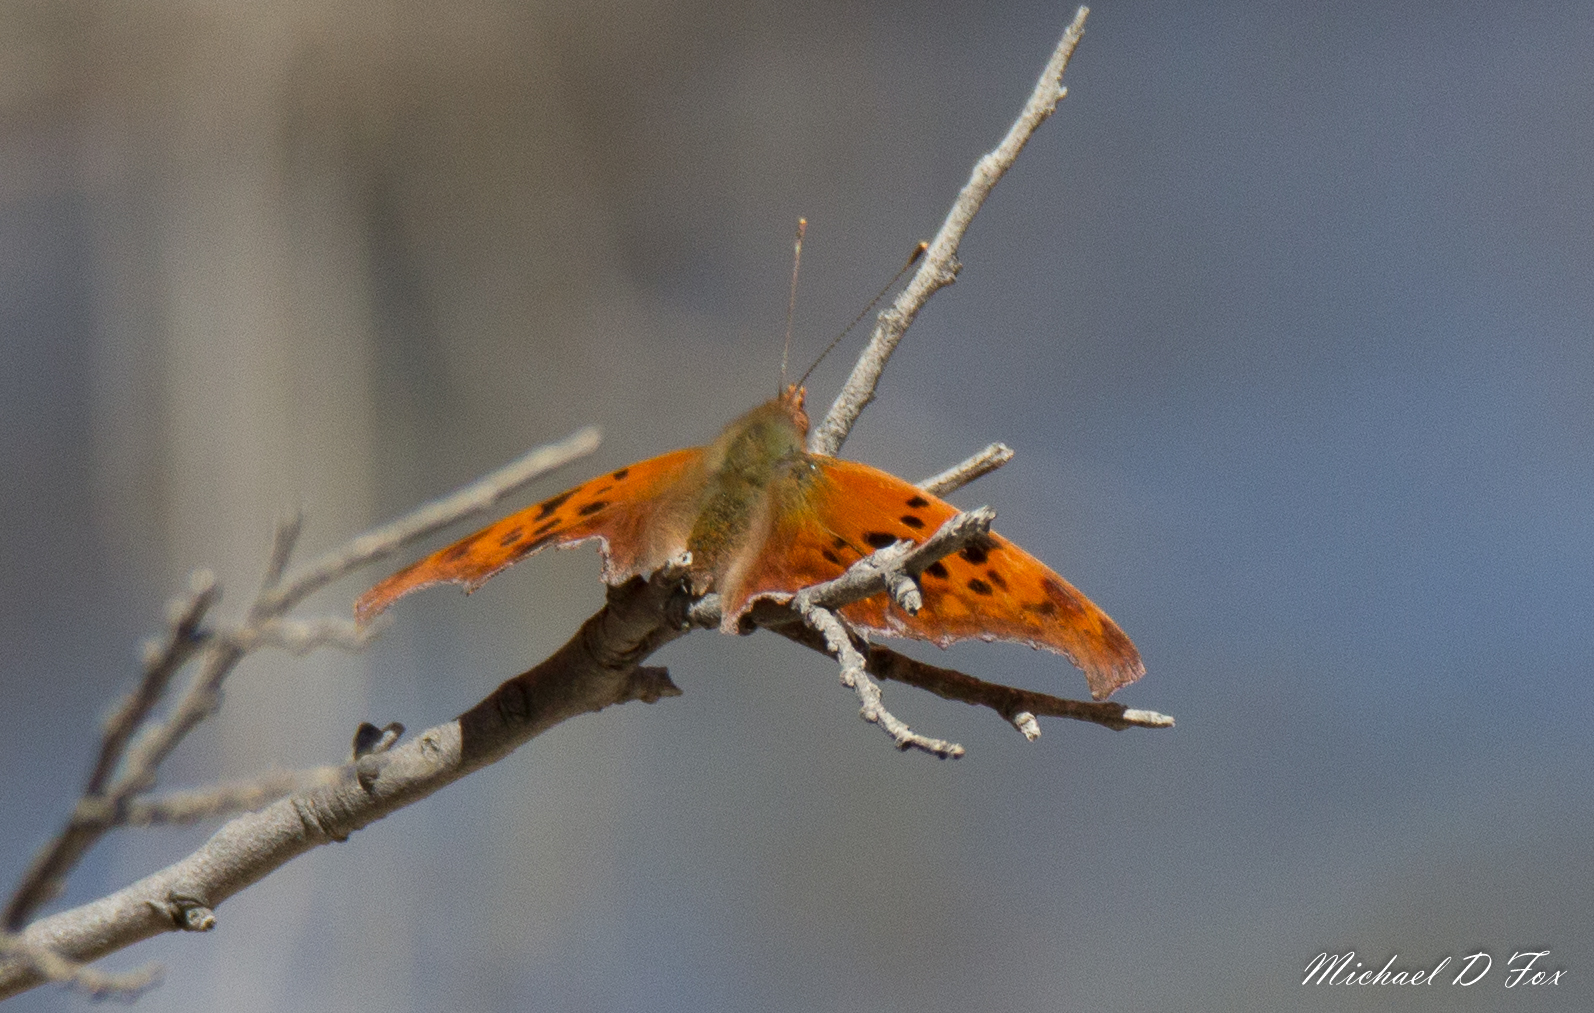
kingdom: Animalia
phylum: Arthropoda
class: Insecta
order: Lepidoptera
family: Nymphalidae
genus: Polygonia
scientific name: Polygonia interrogationis
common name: Question mark
